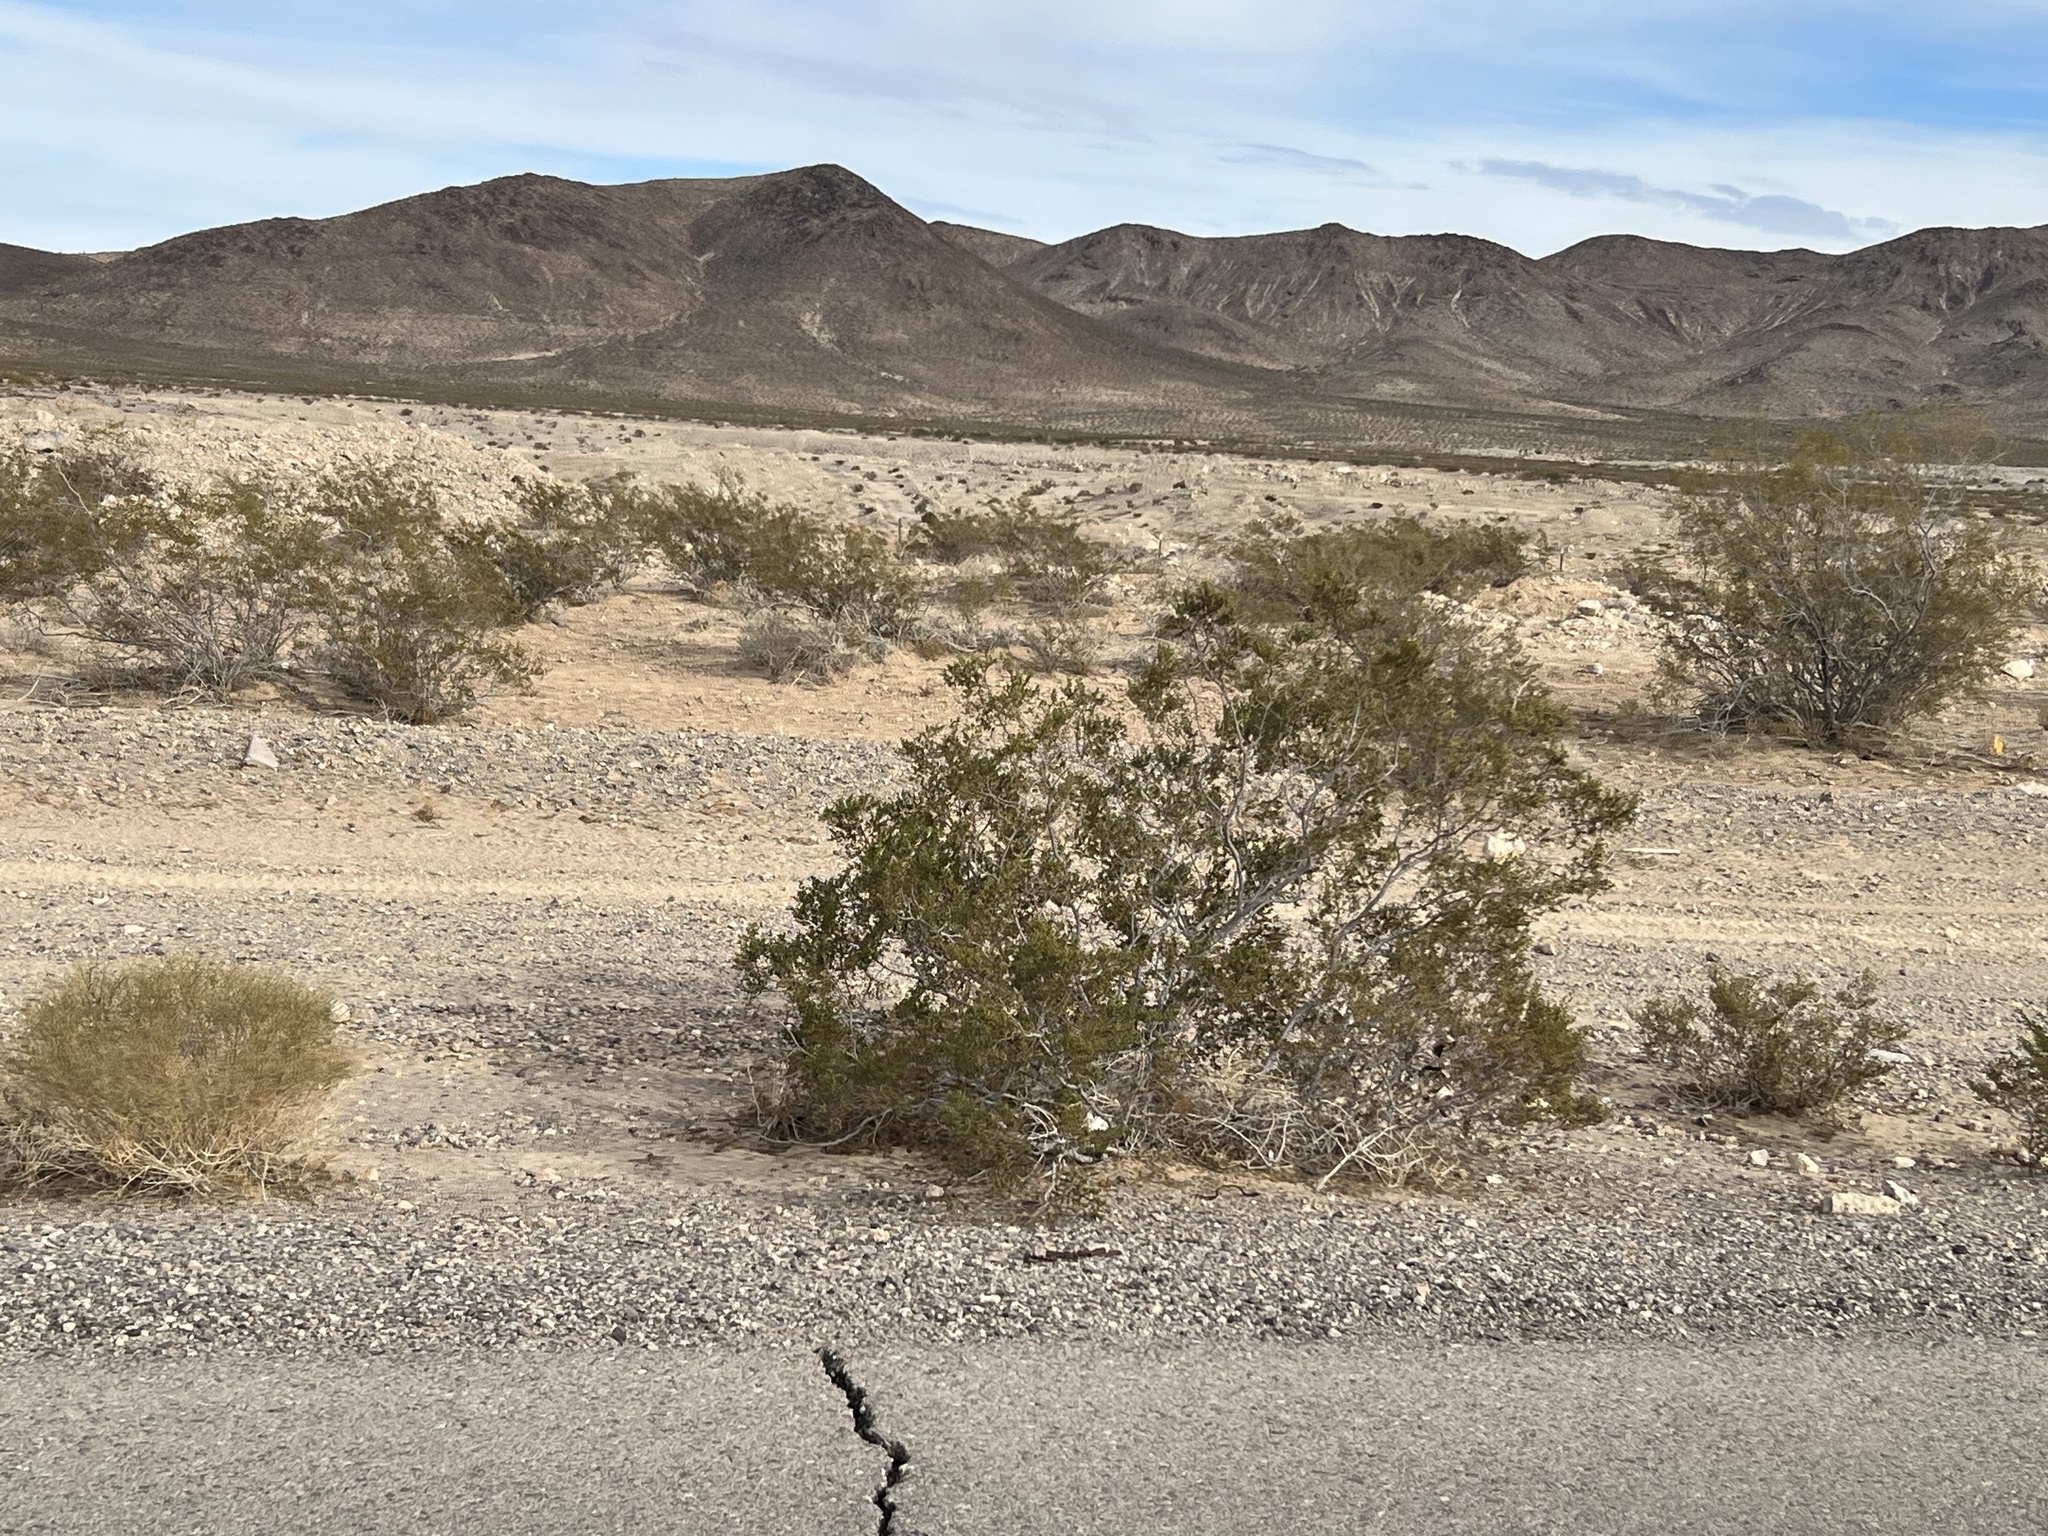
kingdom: Plantae
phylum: Tracheophyta
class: Magnoliopsida
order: Zygophyllales
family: Zygophyllaceae
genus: Larrea
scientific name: Larrea tridentata
